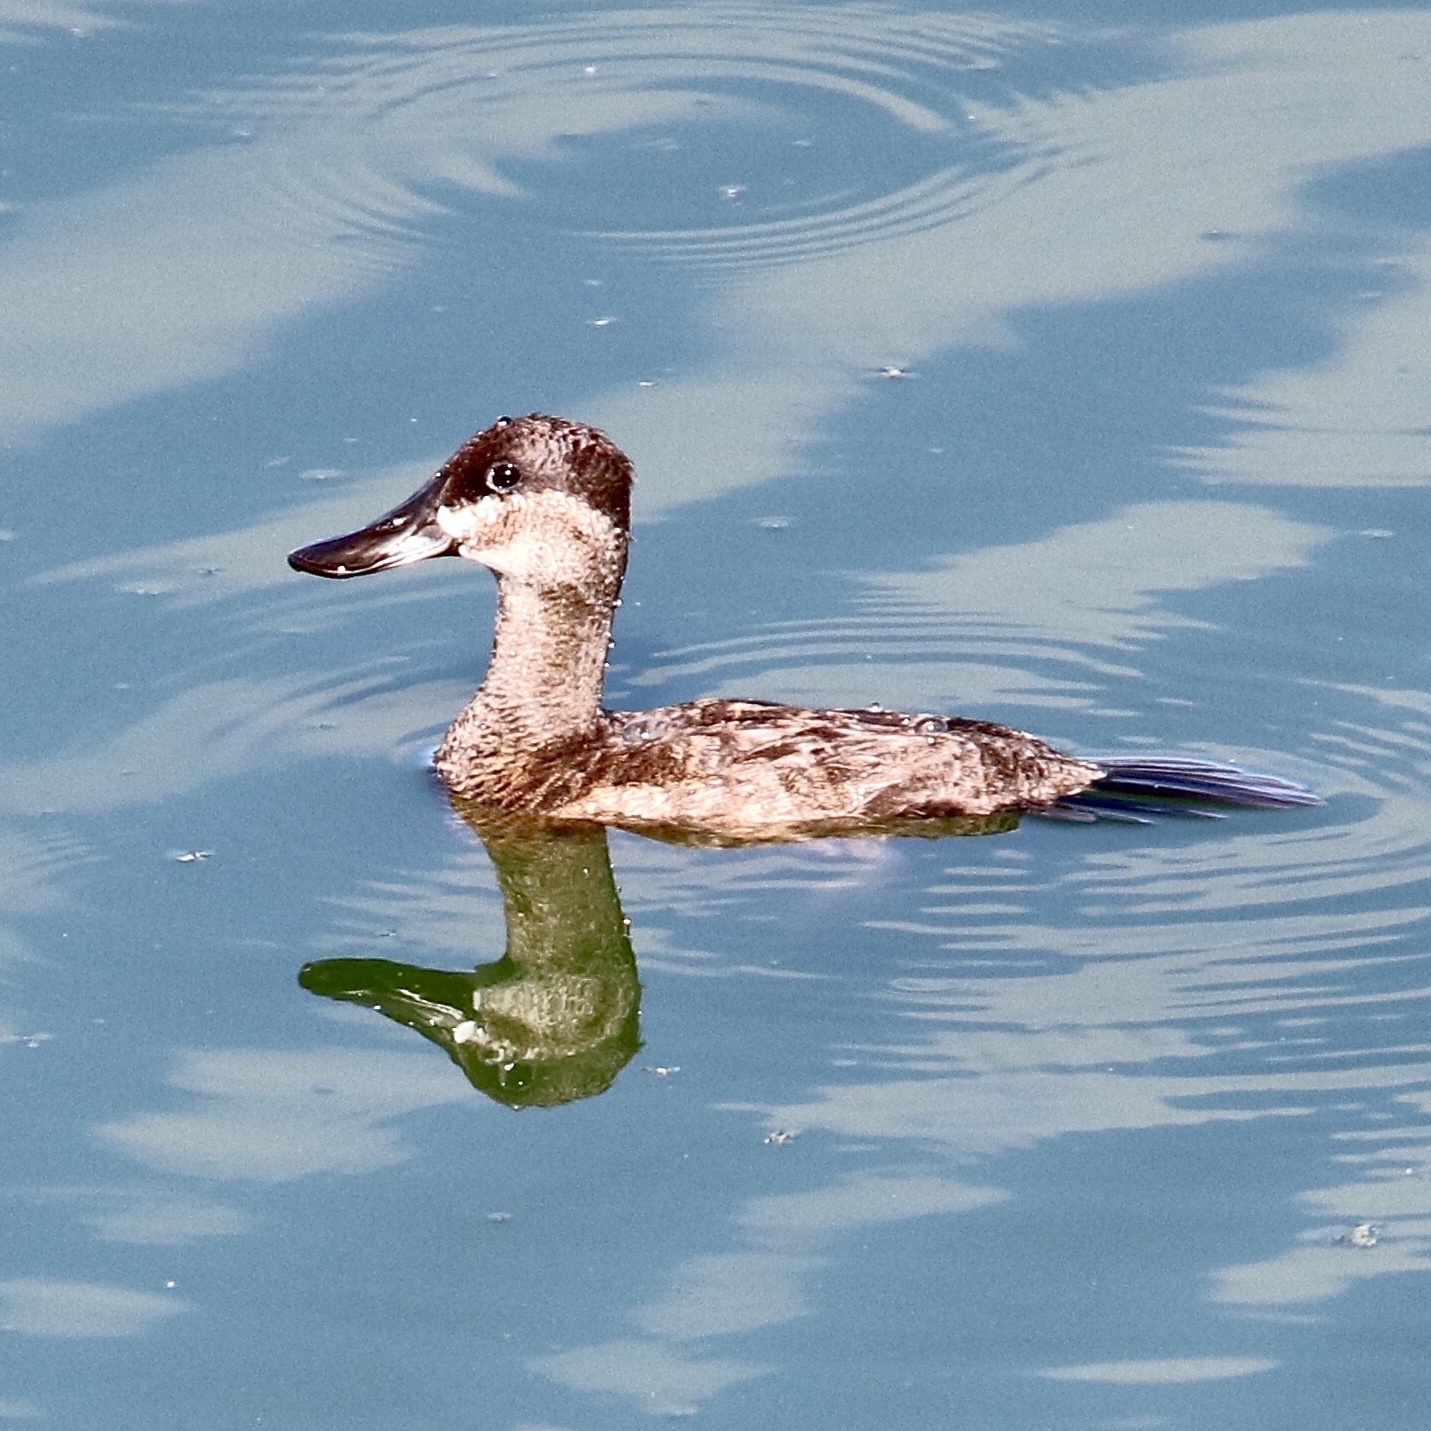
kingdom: Animalia
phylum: Chordata
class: Aves
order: Anseriformes
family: Anatidae
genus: Oxyura
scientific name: Oxyura jamaicensis
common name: Ruddy duck
